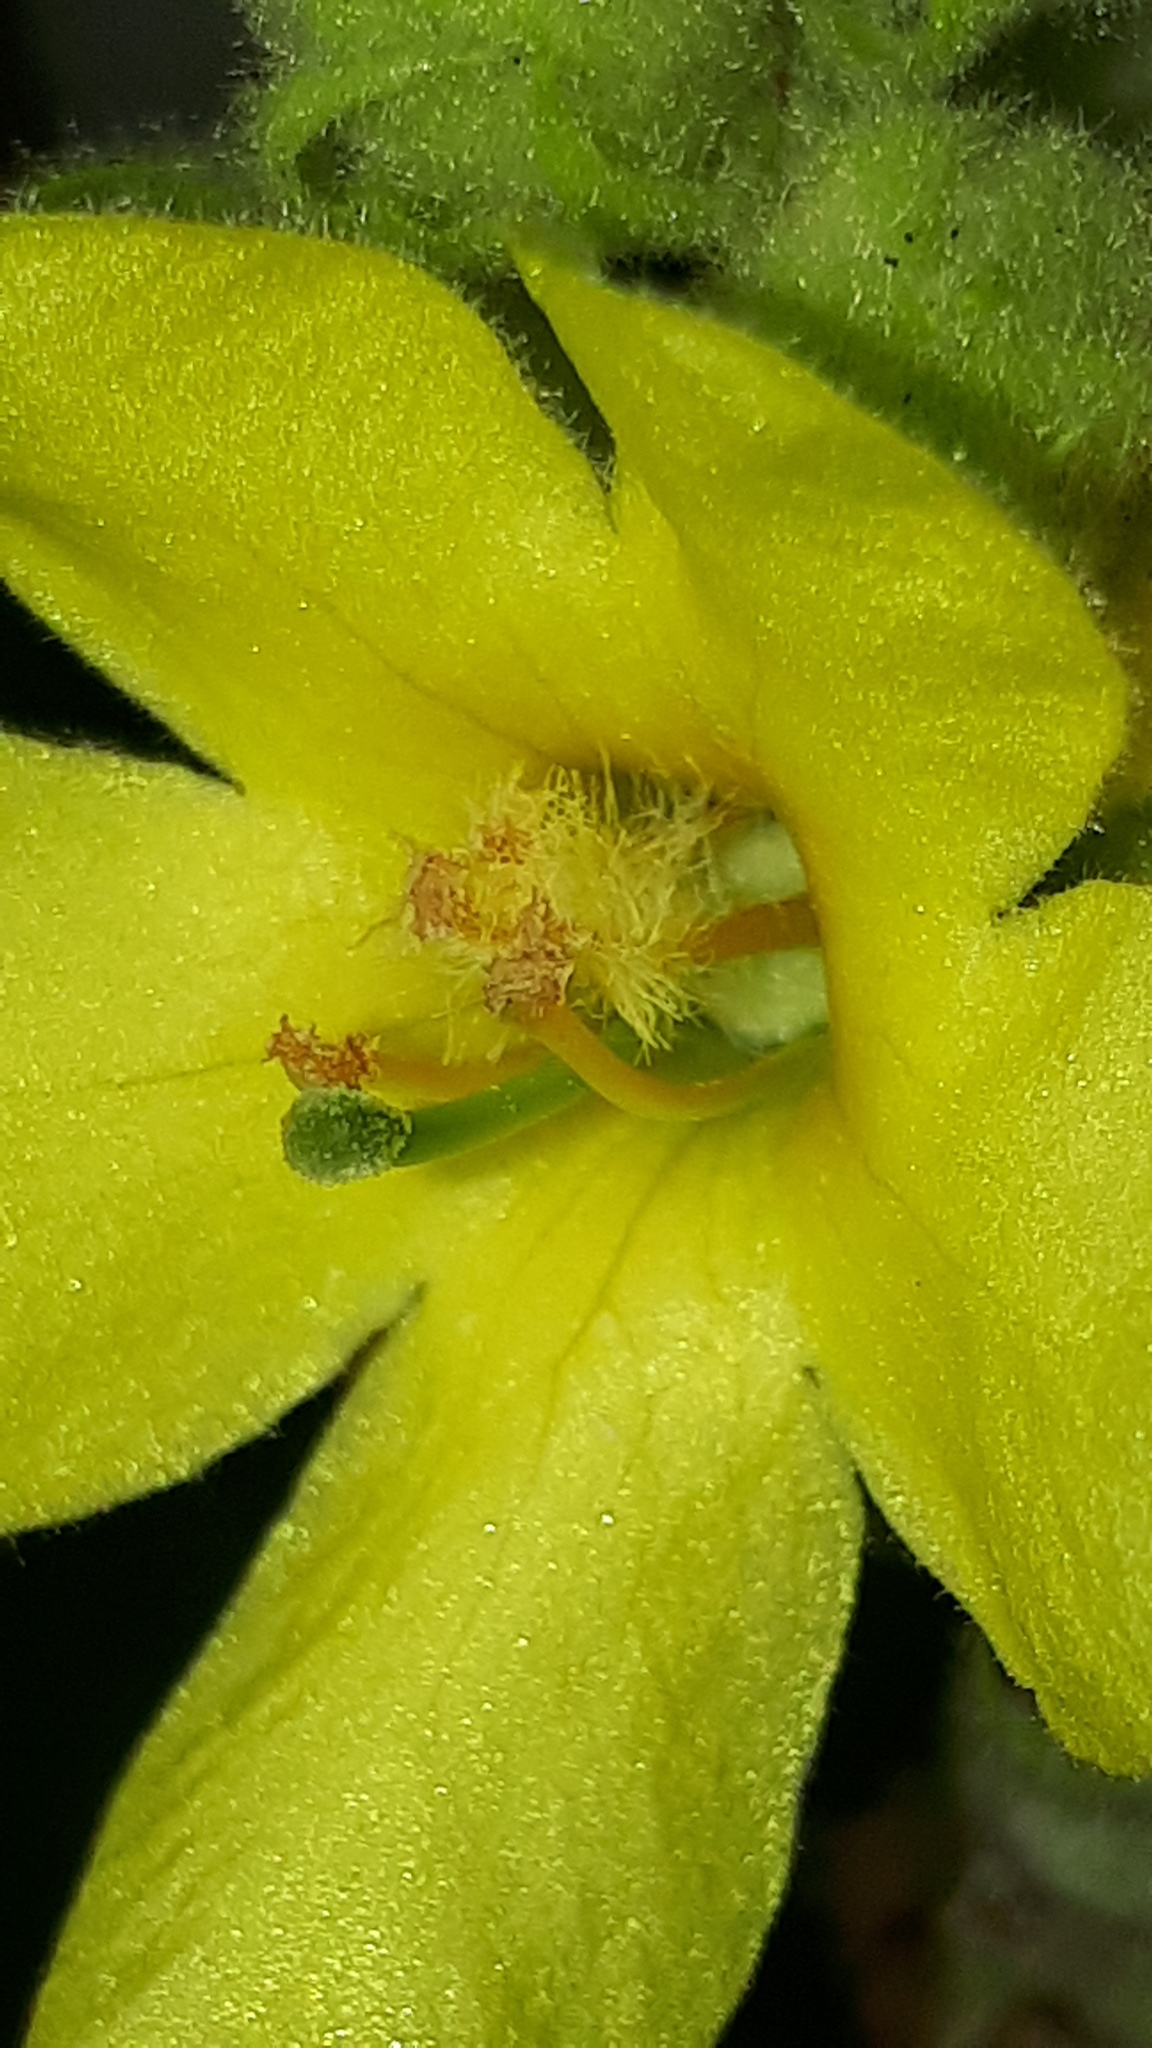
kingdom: Plantae
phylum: Tracheophyta
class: Magnoliopsida
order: Lamiales
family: Scrophulariaceae
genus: Verbascum
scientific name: Verbascum thapsus
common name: Common mullein
